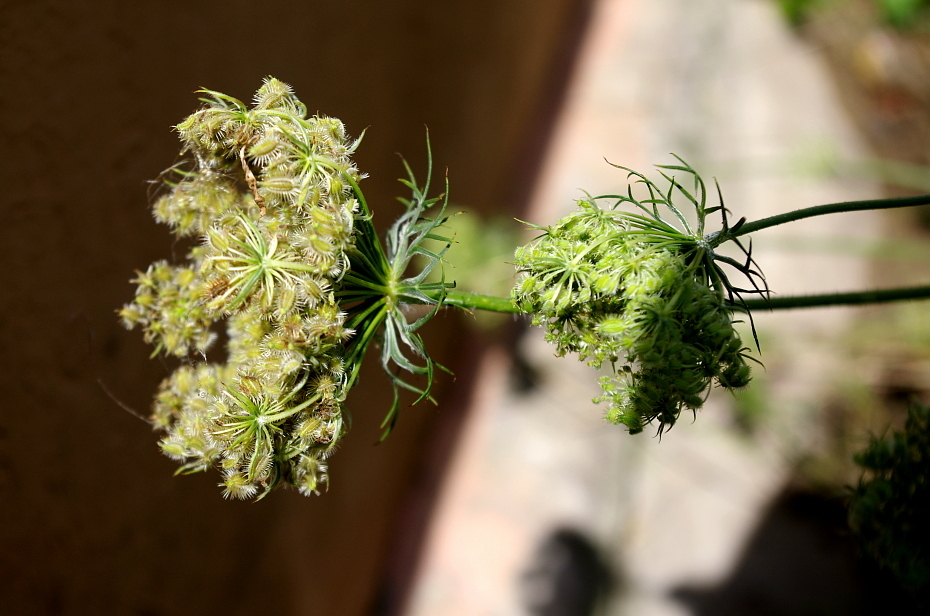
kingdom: Plantae
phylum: Tracheophyta
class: Magnoliopsida
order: Apiales
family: Apiaceae
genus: Daucus
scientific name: Daucus carota
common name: Wild carrot
